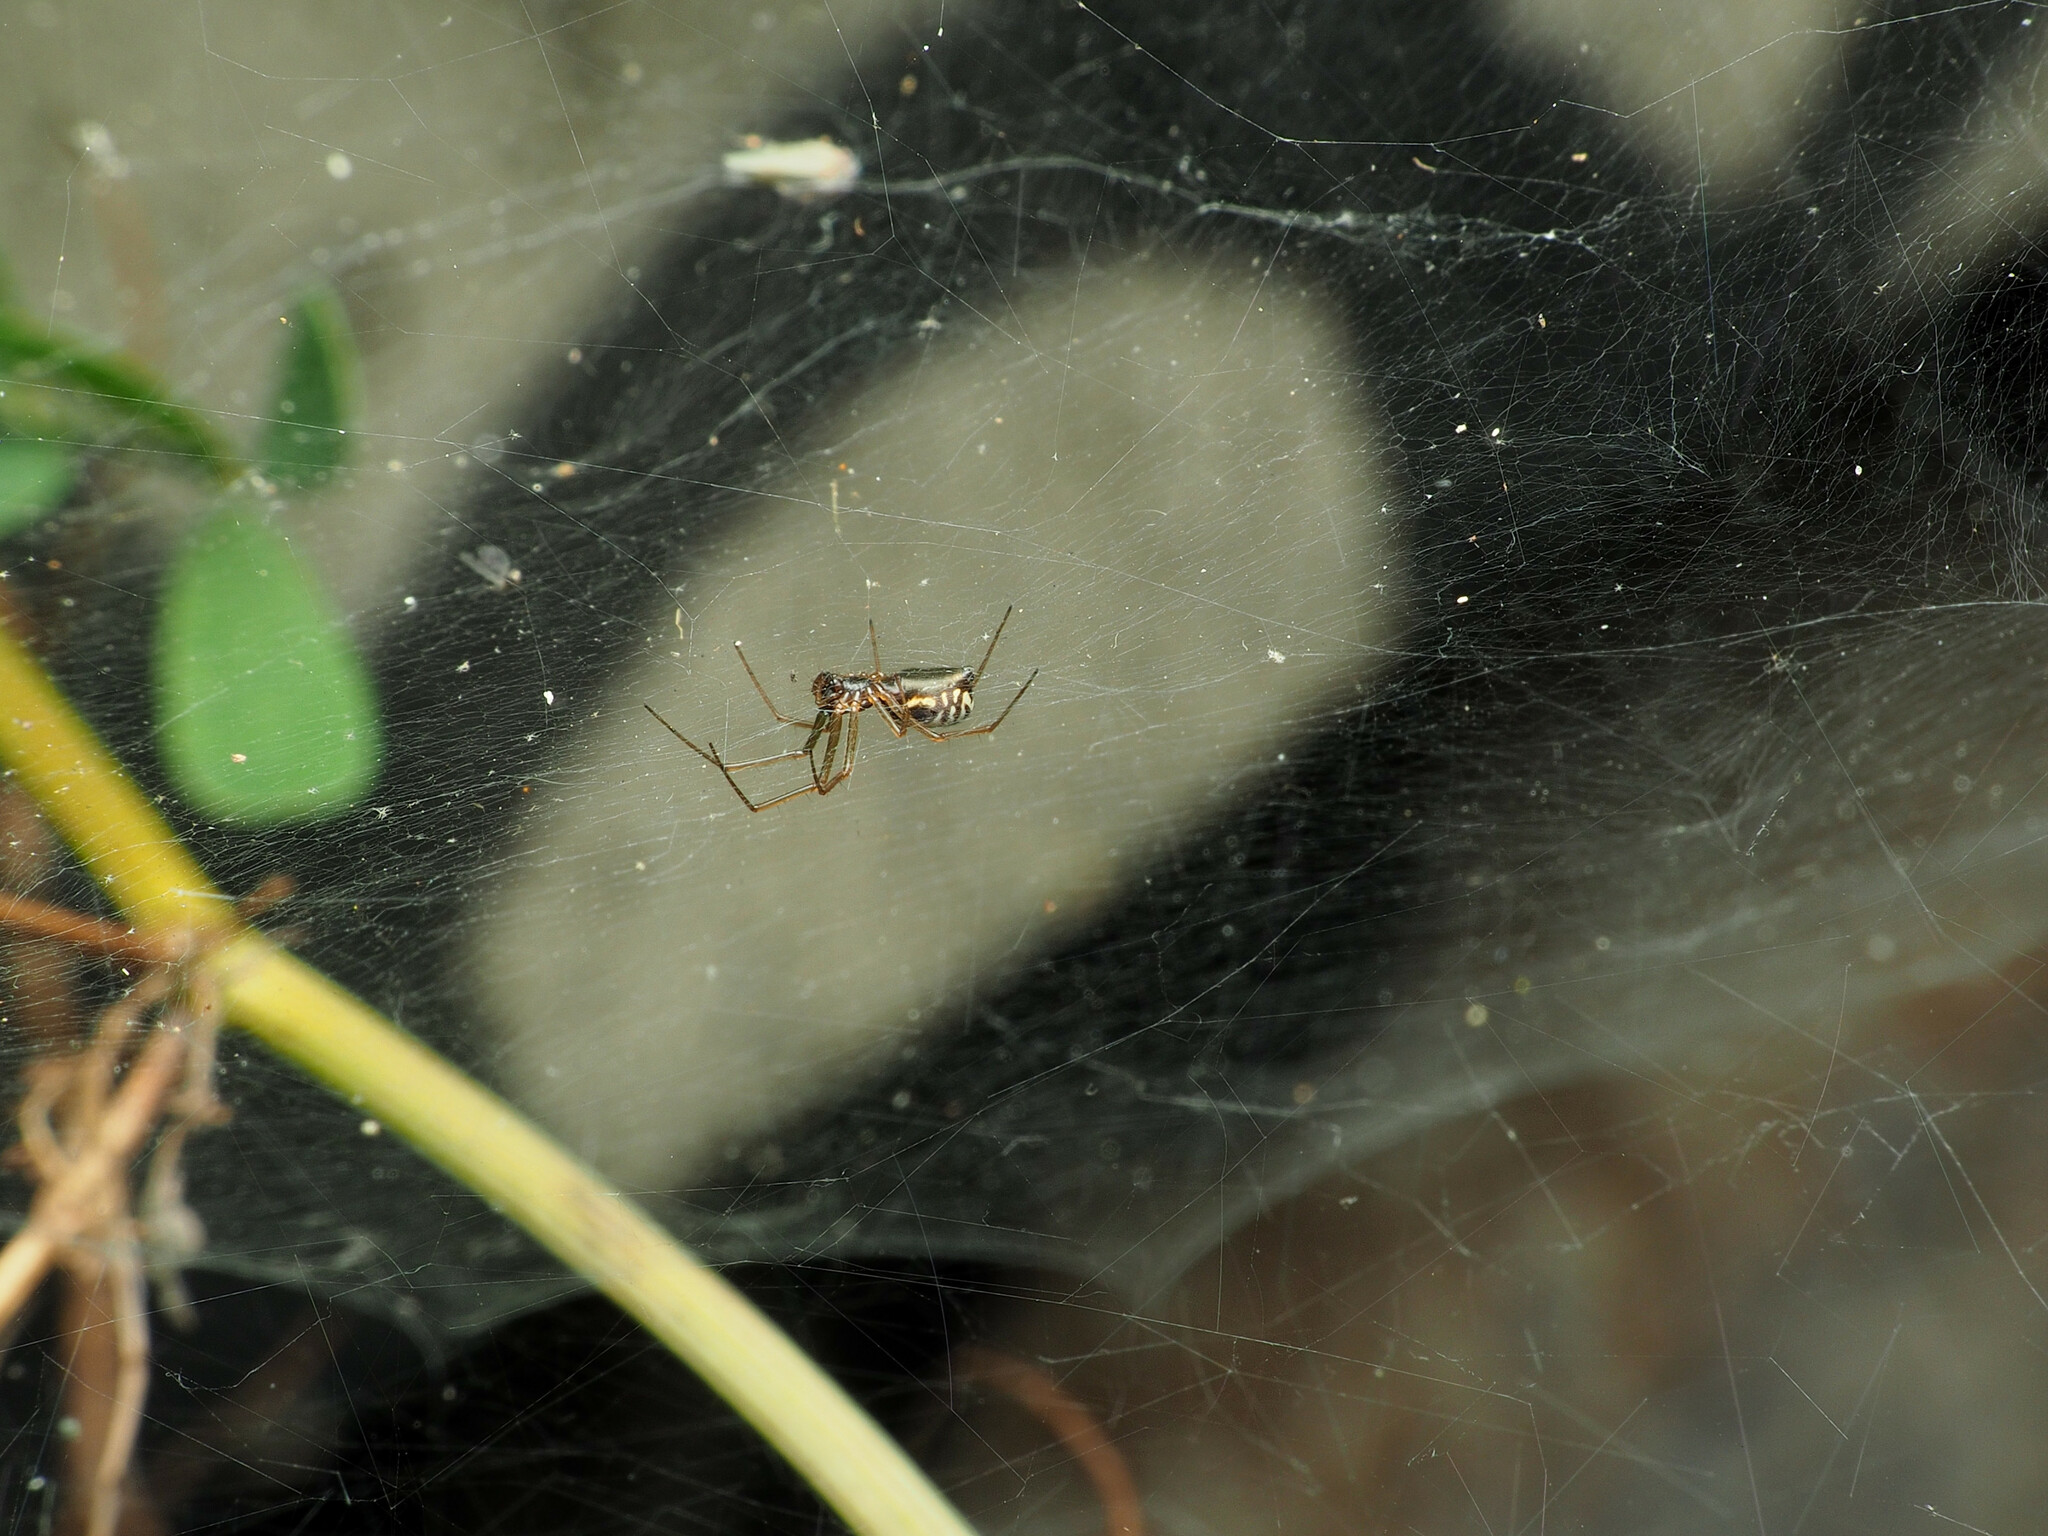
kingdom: Animalia
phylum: Arthropoda
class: Arachnida
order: Araneae
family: Linyphiidae
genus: Frontinella
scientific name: Frontinella pyramitela
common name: Bowl-and-doily spider
